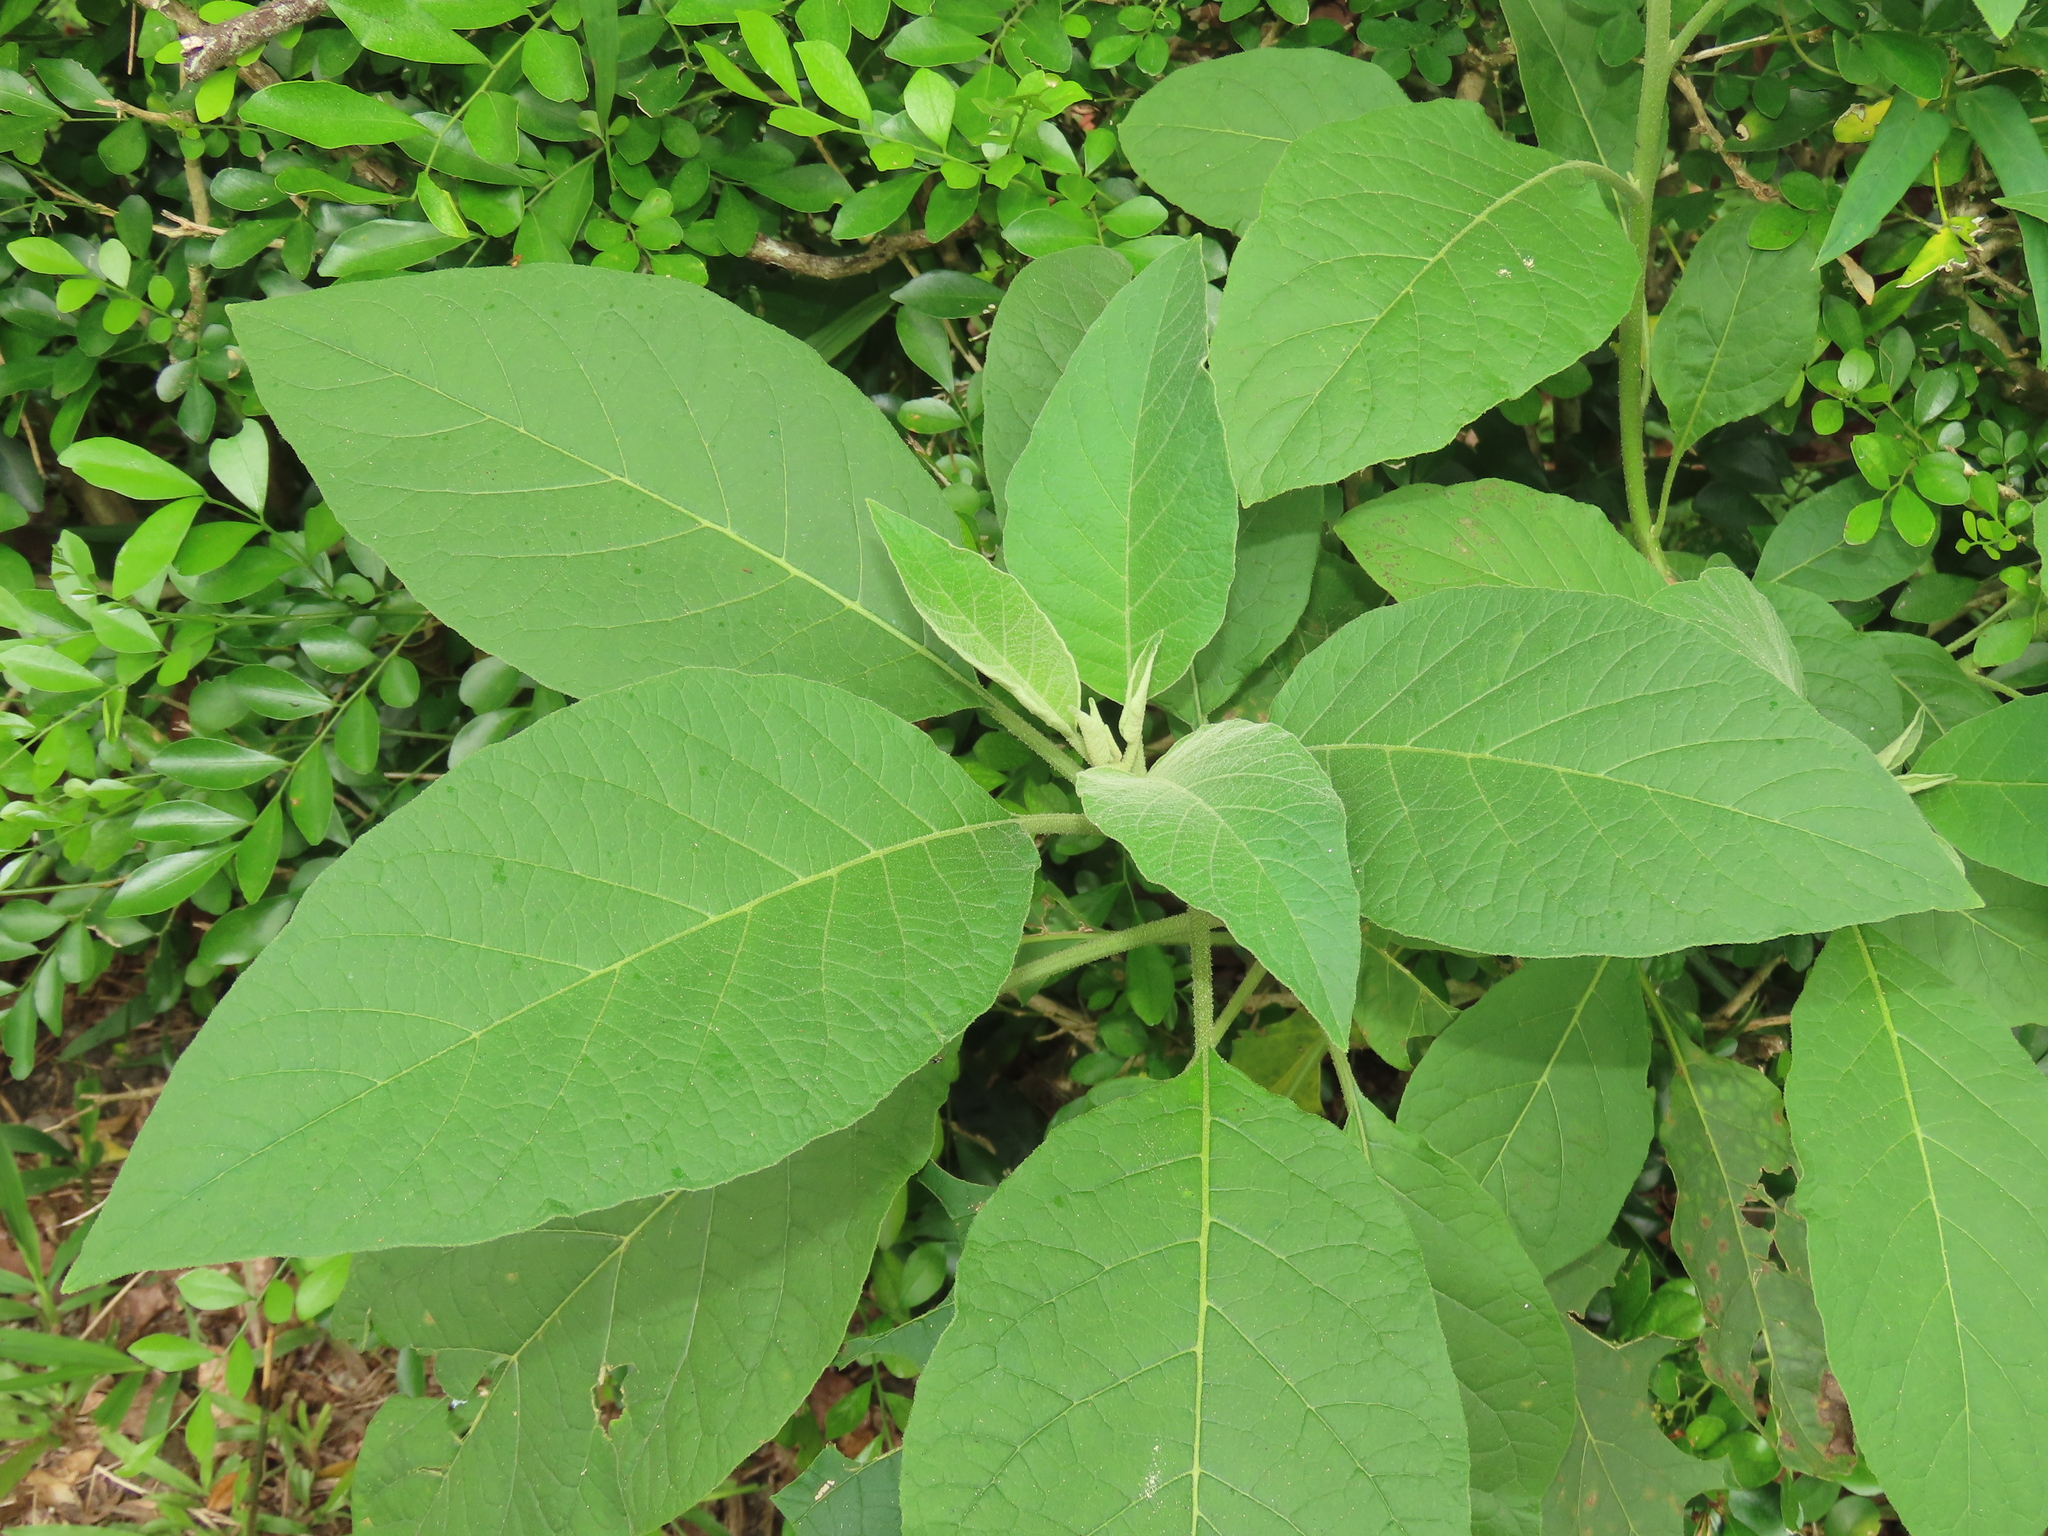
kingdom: Plantae
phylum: Tracheophyta
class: Magnoliopsida
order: Solanales
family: Solanaceae
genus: Solanum
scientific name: Solanum erianthum
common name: Tobacco-tree
